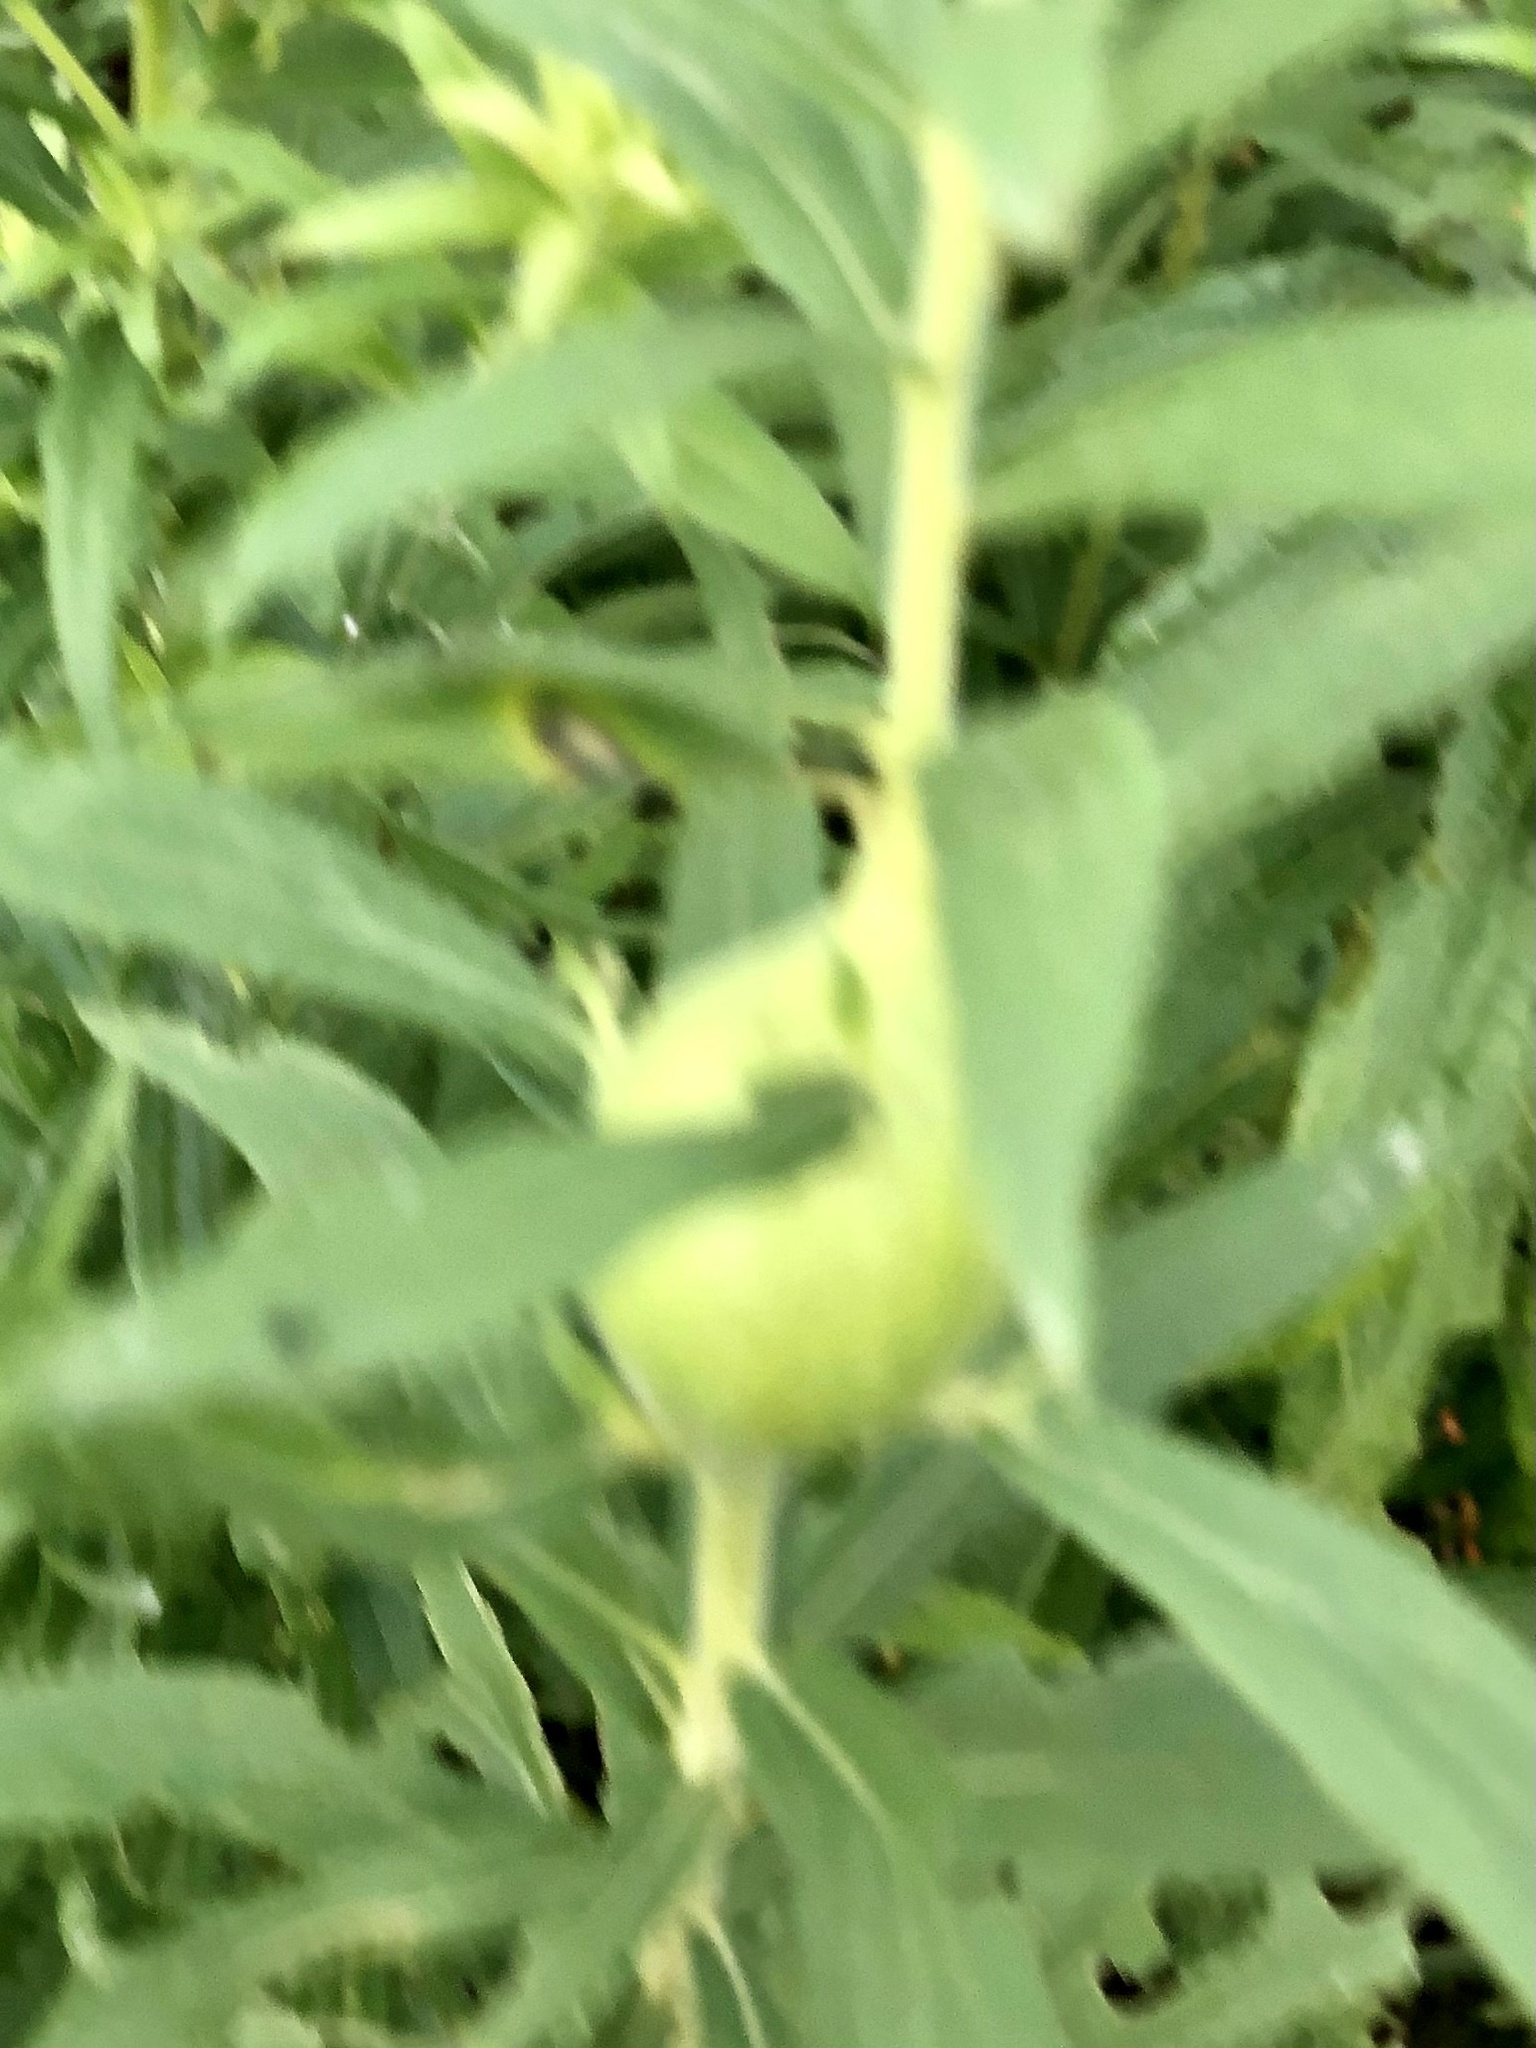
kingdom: Animalia
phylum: Arthropoda
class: Insecta
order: Diptera
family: Tephritidae
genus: Eurosta
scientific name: Eurosta solidaginis
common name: Goldenrod gall fly
